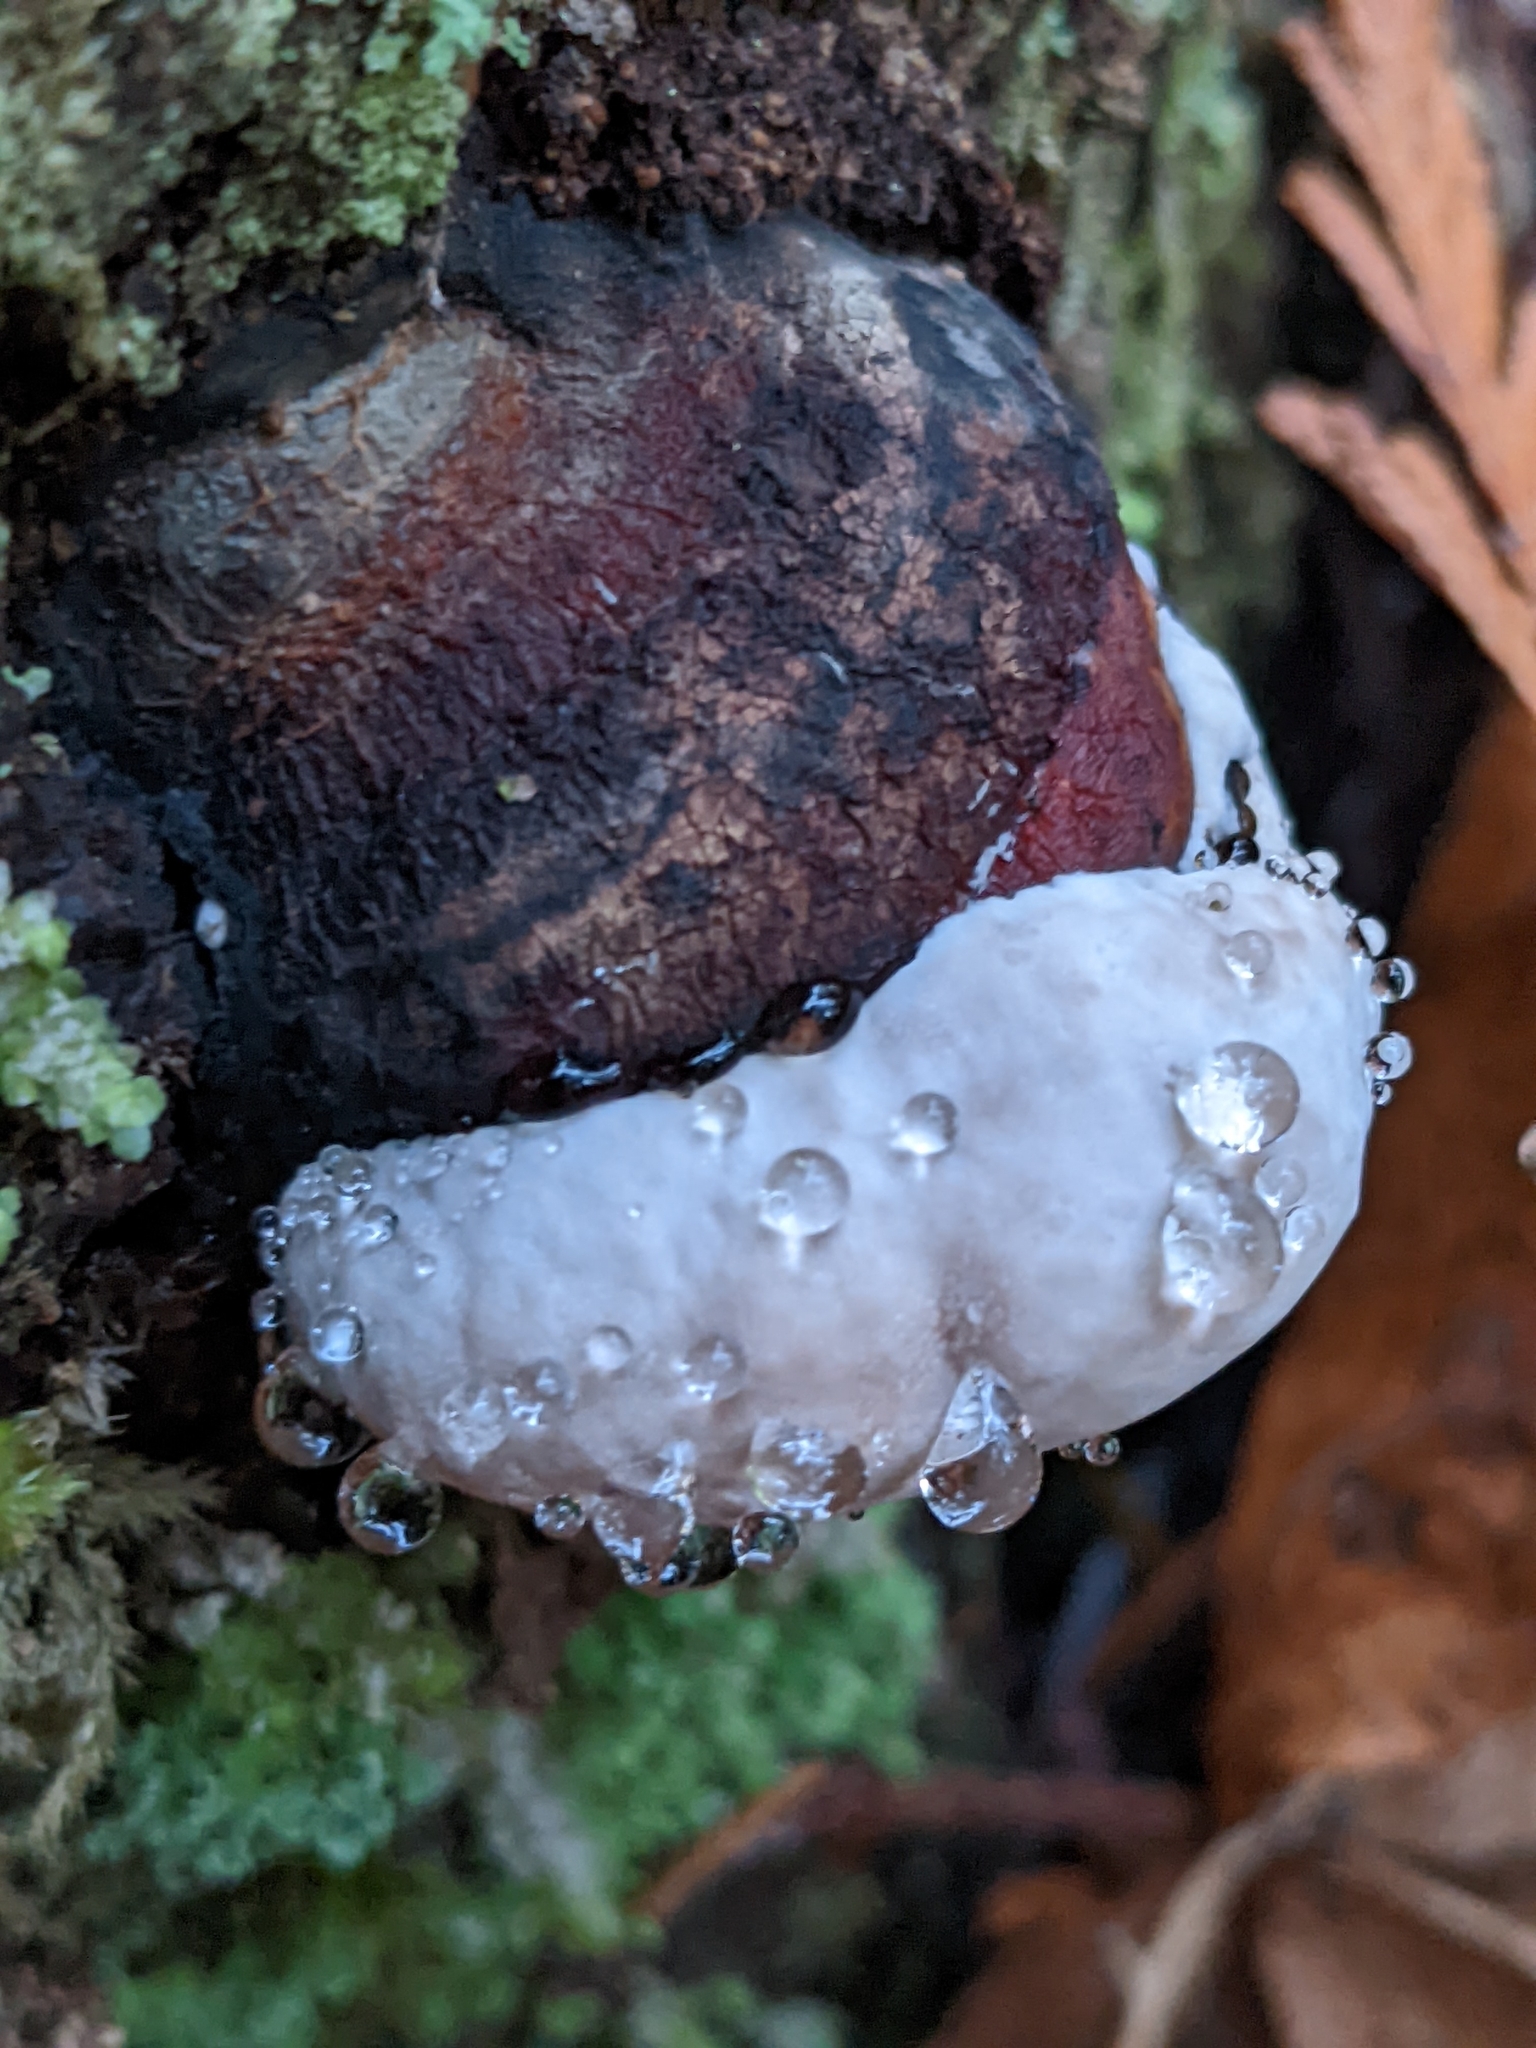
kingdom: Fungi
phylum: Basidiomycota
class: Agaricomycetes
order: Polyporales
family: Fomitopsidaceae
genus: Fomitopsis
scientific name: Fomitopsis mounceae
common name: Northern red belt
